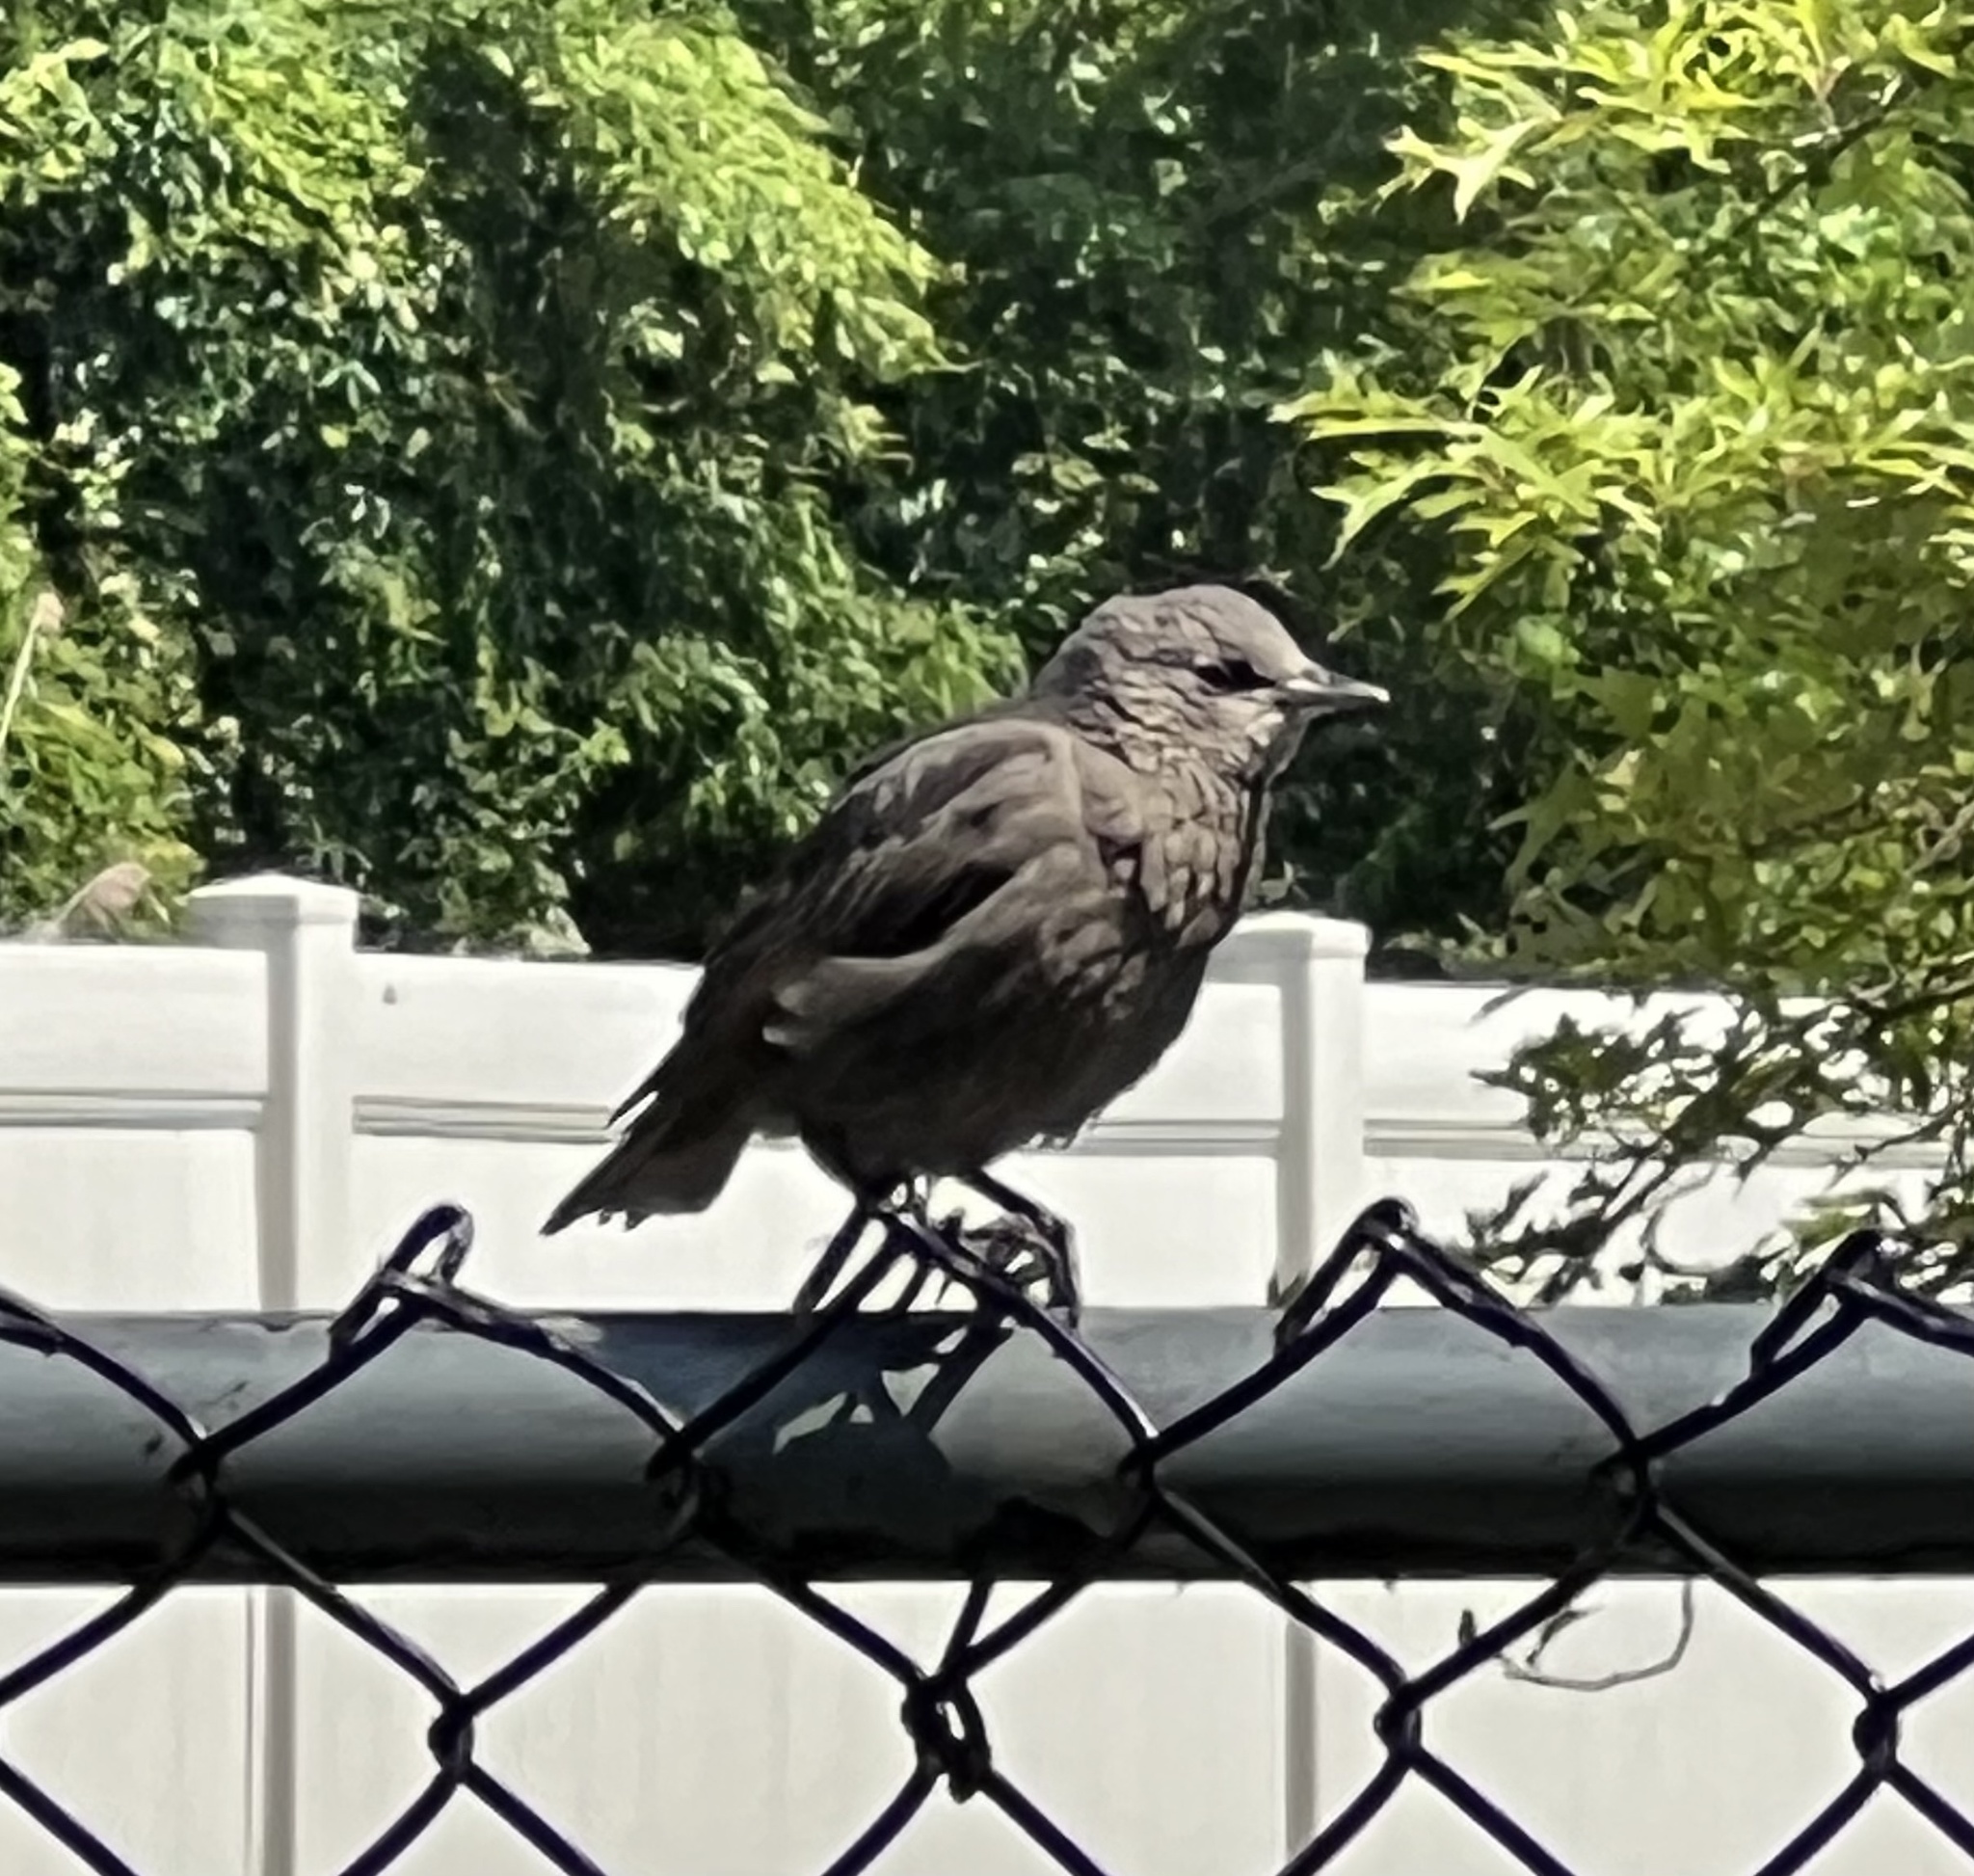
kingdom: Animalia
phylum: Chordata
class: Aves
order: Passeriformes
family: Sturnidae
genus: Sturnus
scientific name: Sturnus vulgaris
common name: Common starling
